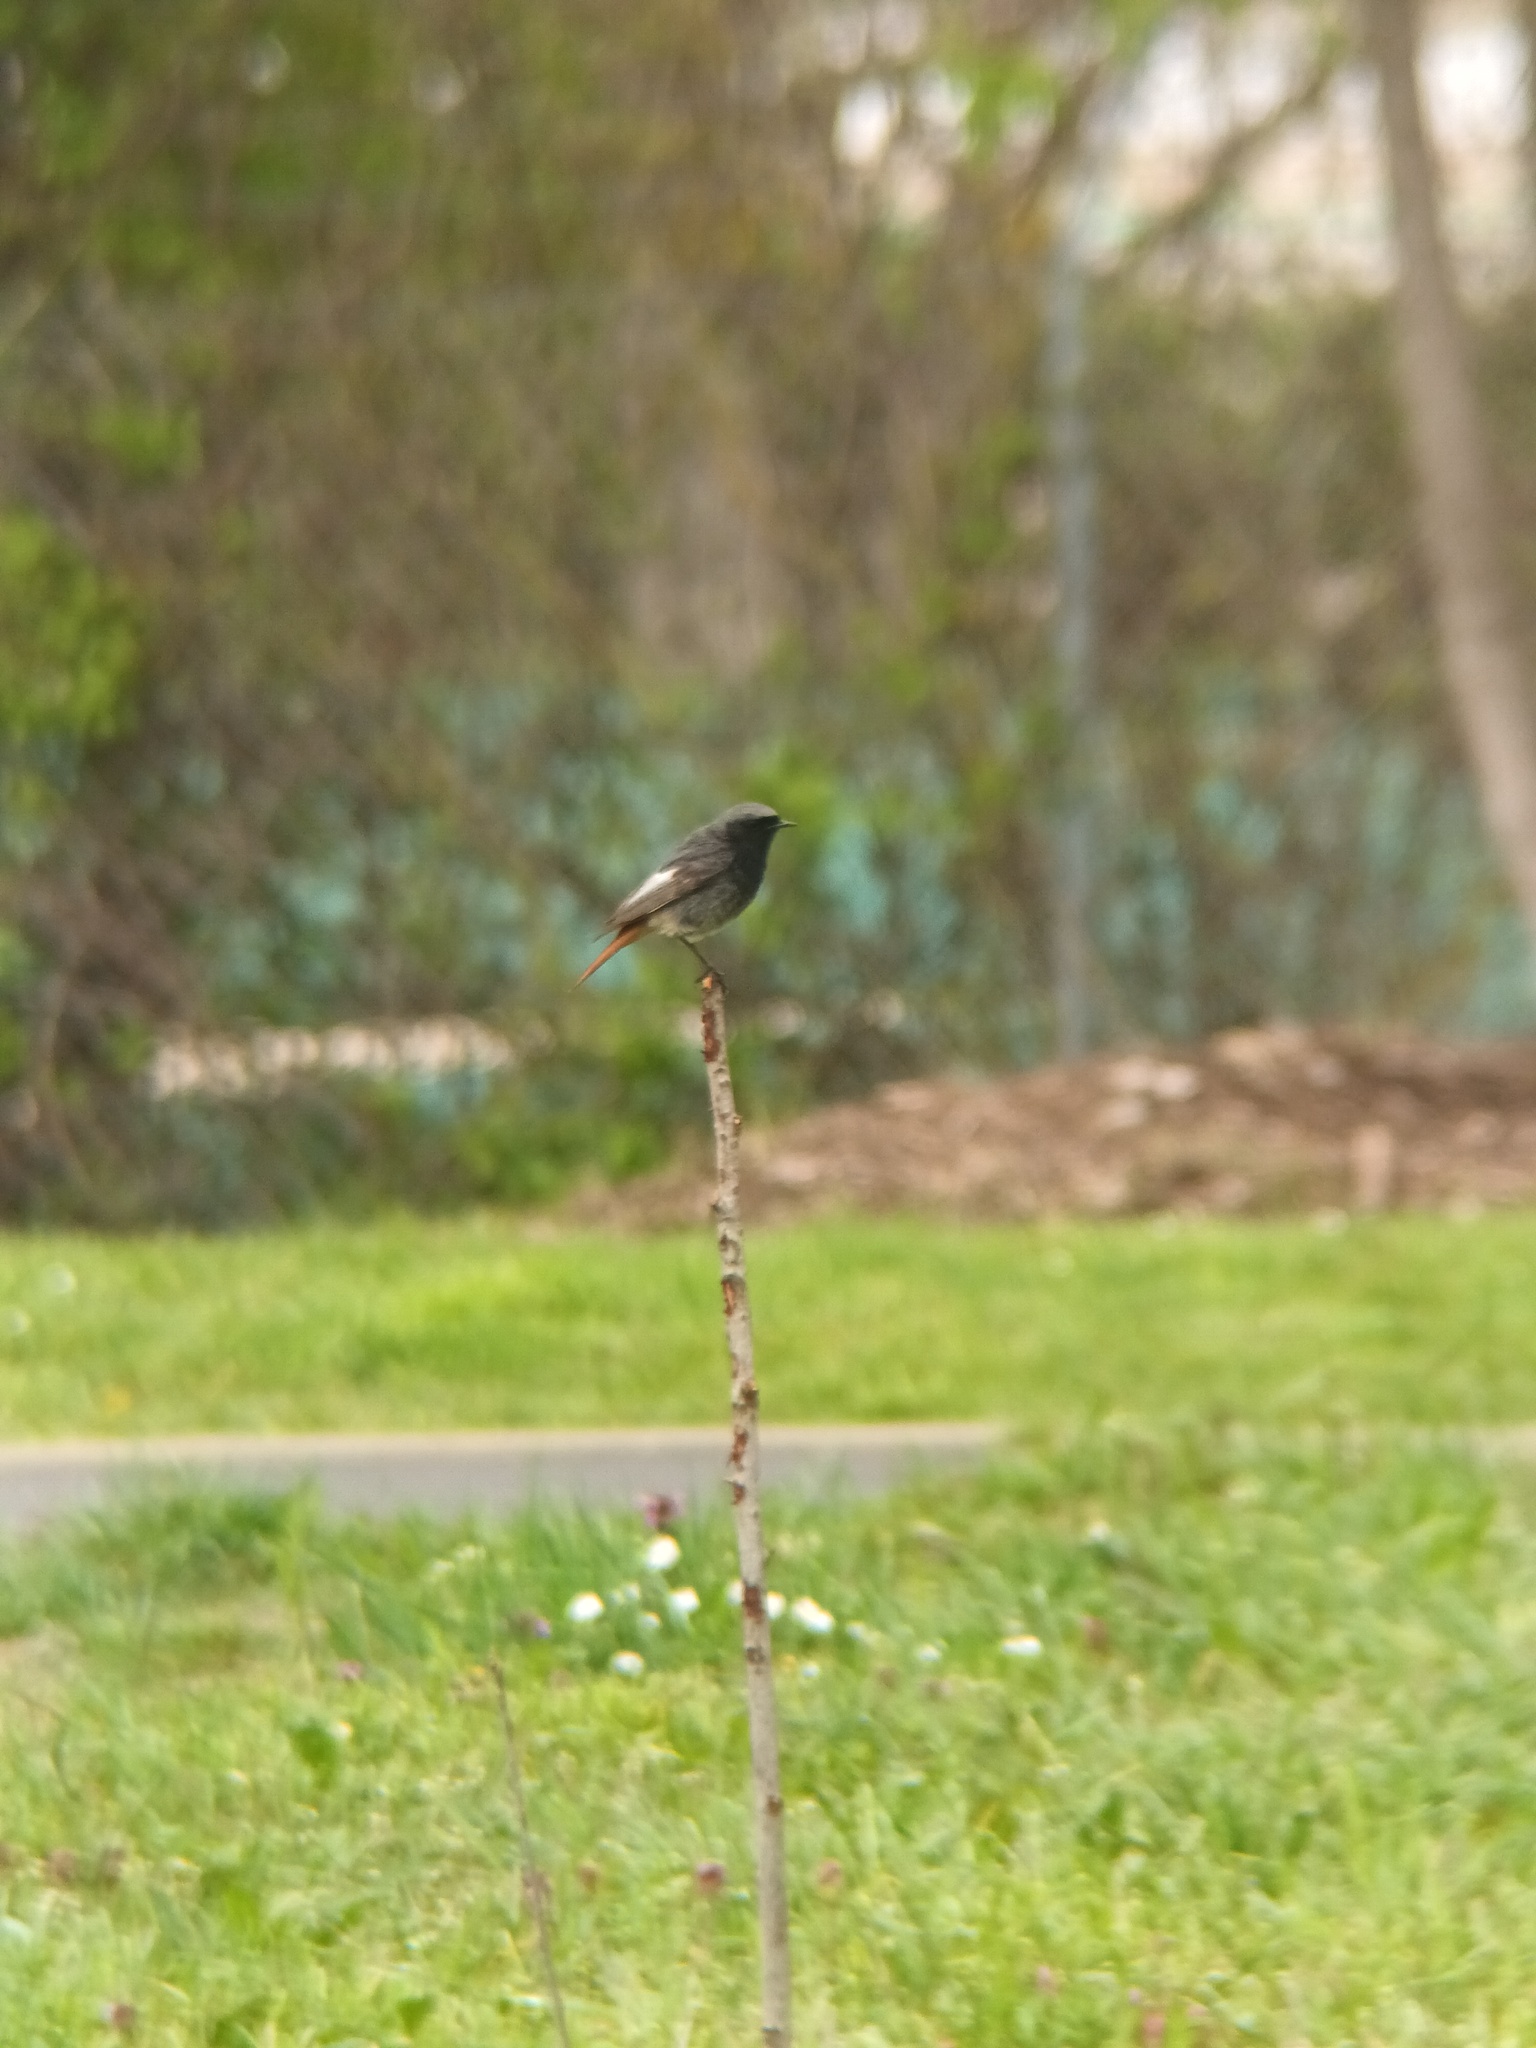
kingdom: Animalia
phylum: Chordata
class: Aves
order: Passeriformes
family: Muscicapidae
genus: Phoenicurus
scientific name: Phoenicurus ochruros
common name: Black redstart
